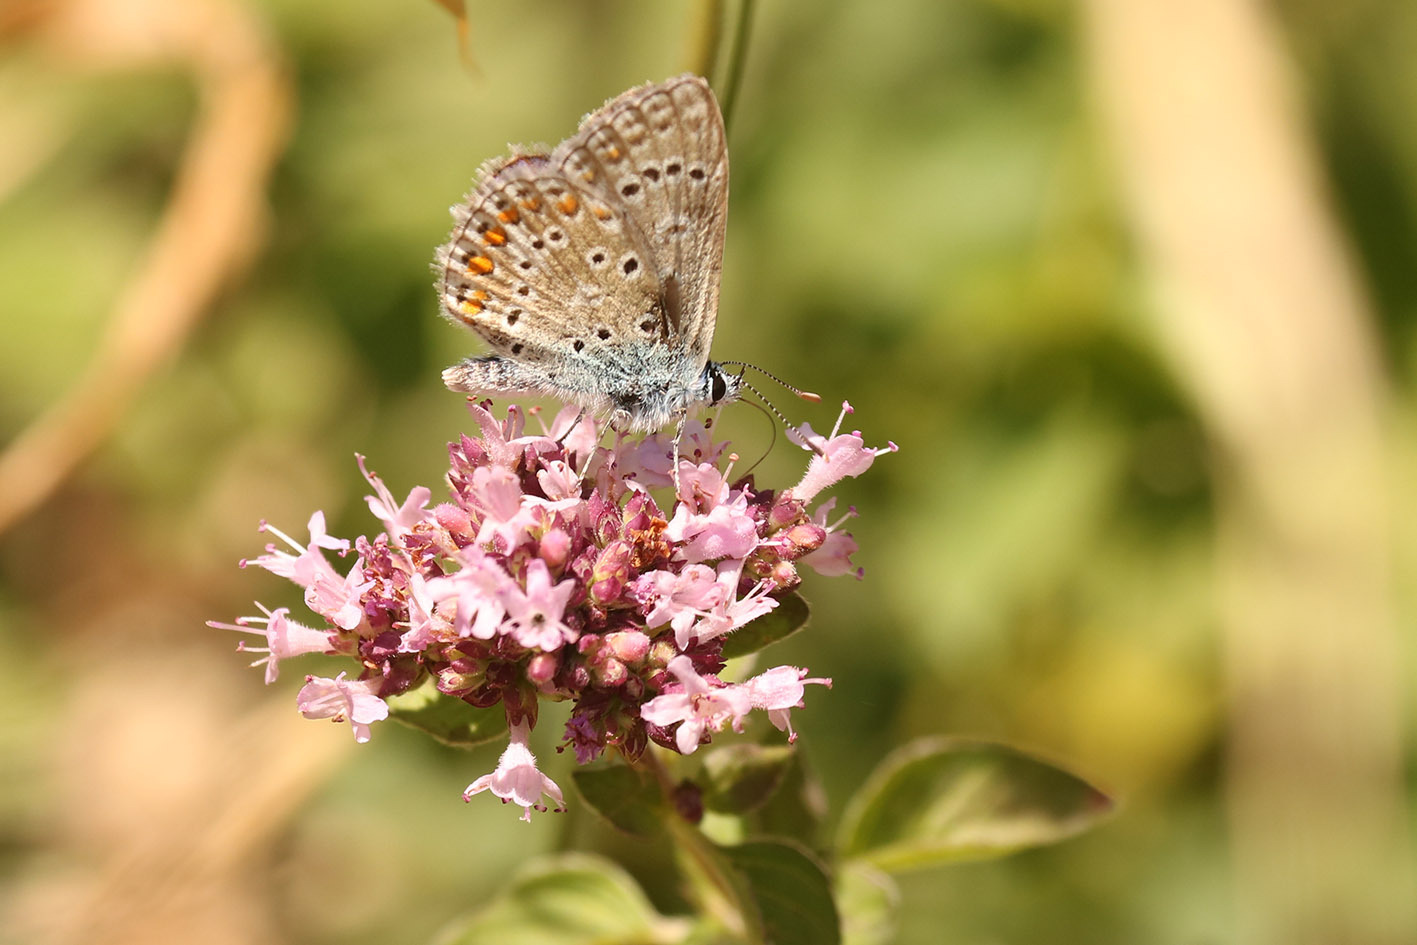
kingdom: Animalia
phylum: Arthropoda
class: Insecta
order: Lepidoptera
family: Lycaenidae
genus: Polyommatus
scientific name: Polyommatus icarus
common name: Common blue
